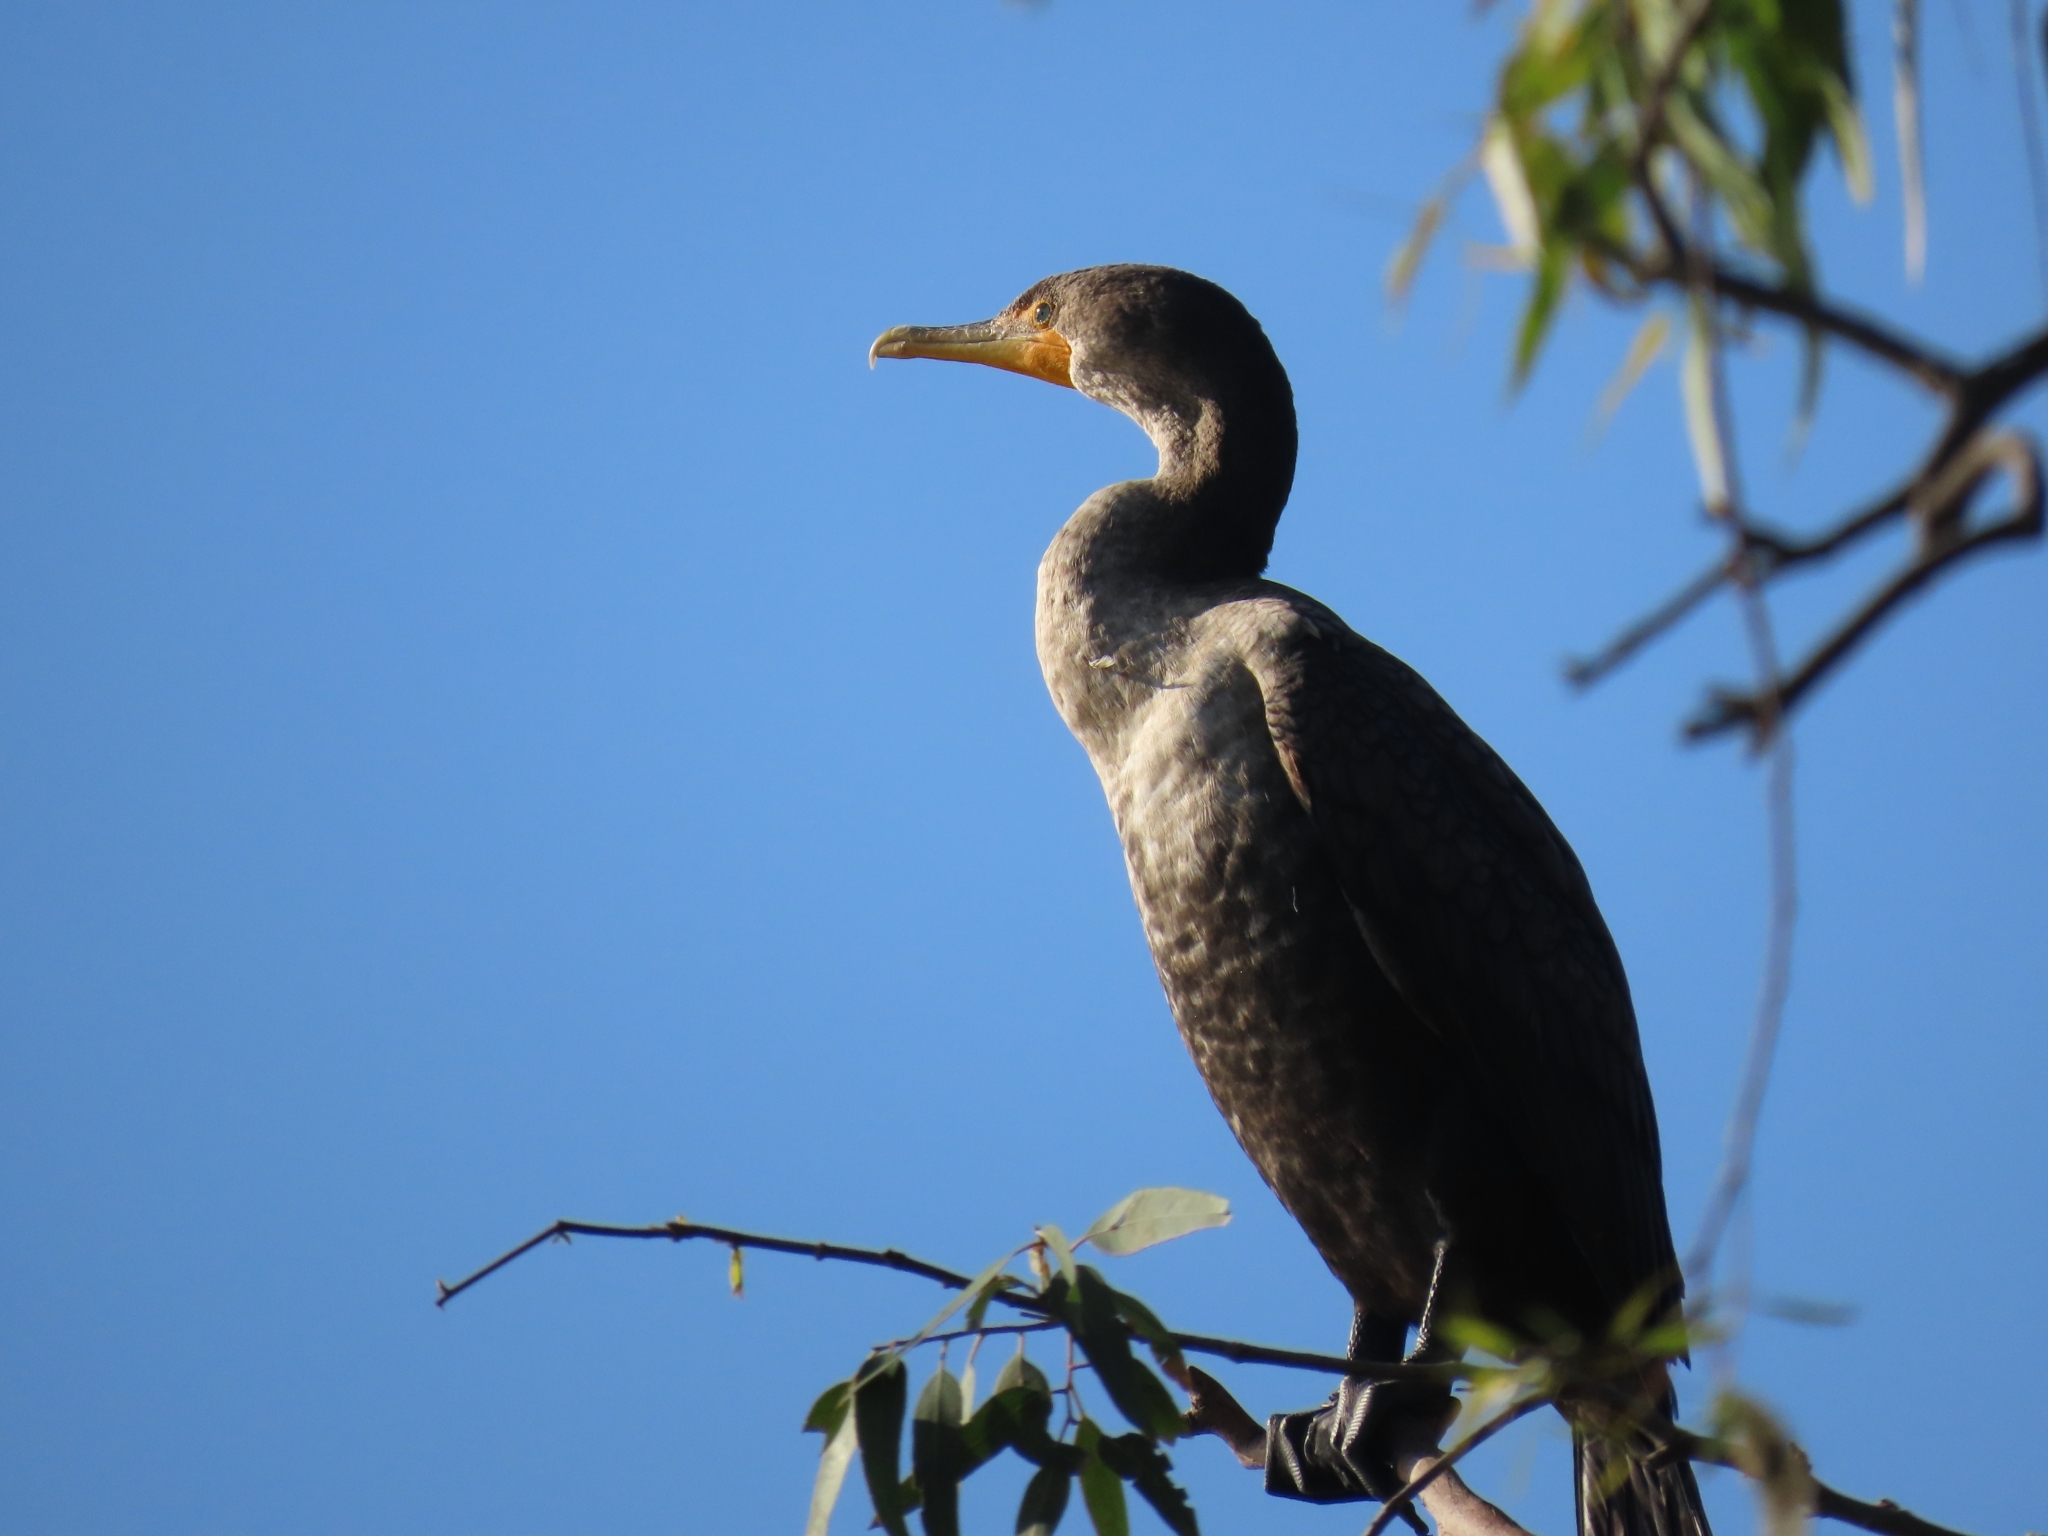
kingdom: Animalia
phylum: Chordata
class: Aves
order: Suliformes
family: Phalacrocoracidae
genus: Phalacrocorax
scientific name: Phalacrocorax auritus
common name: Double-crested cormorant
